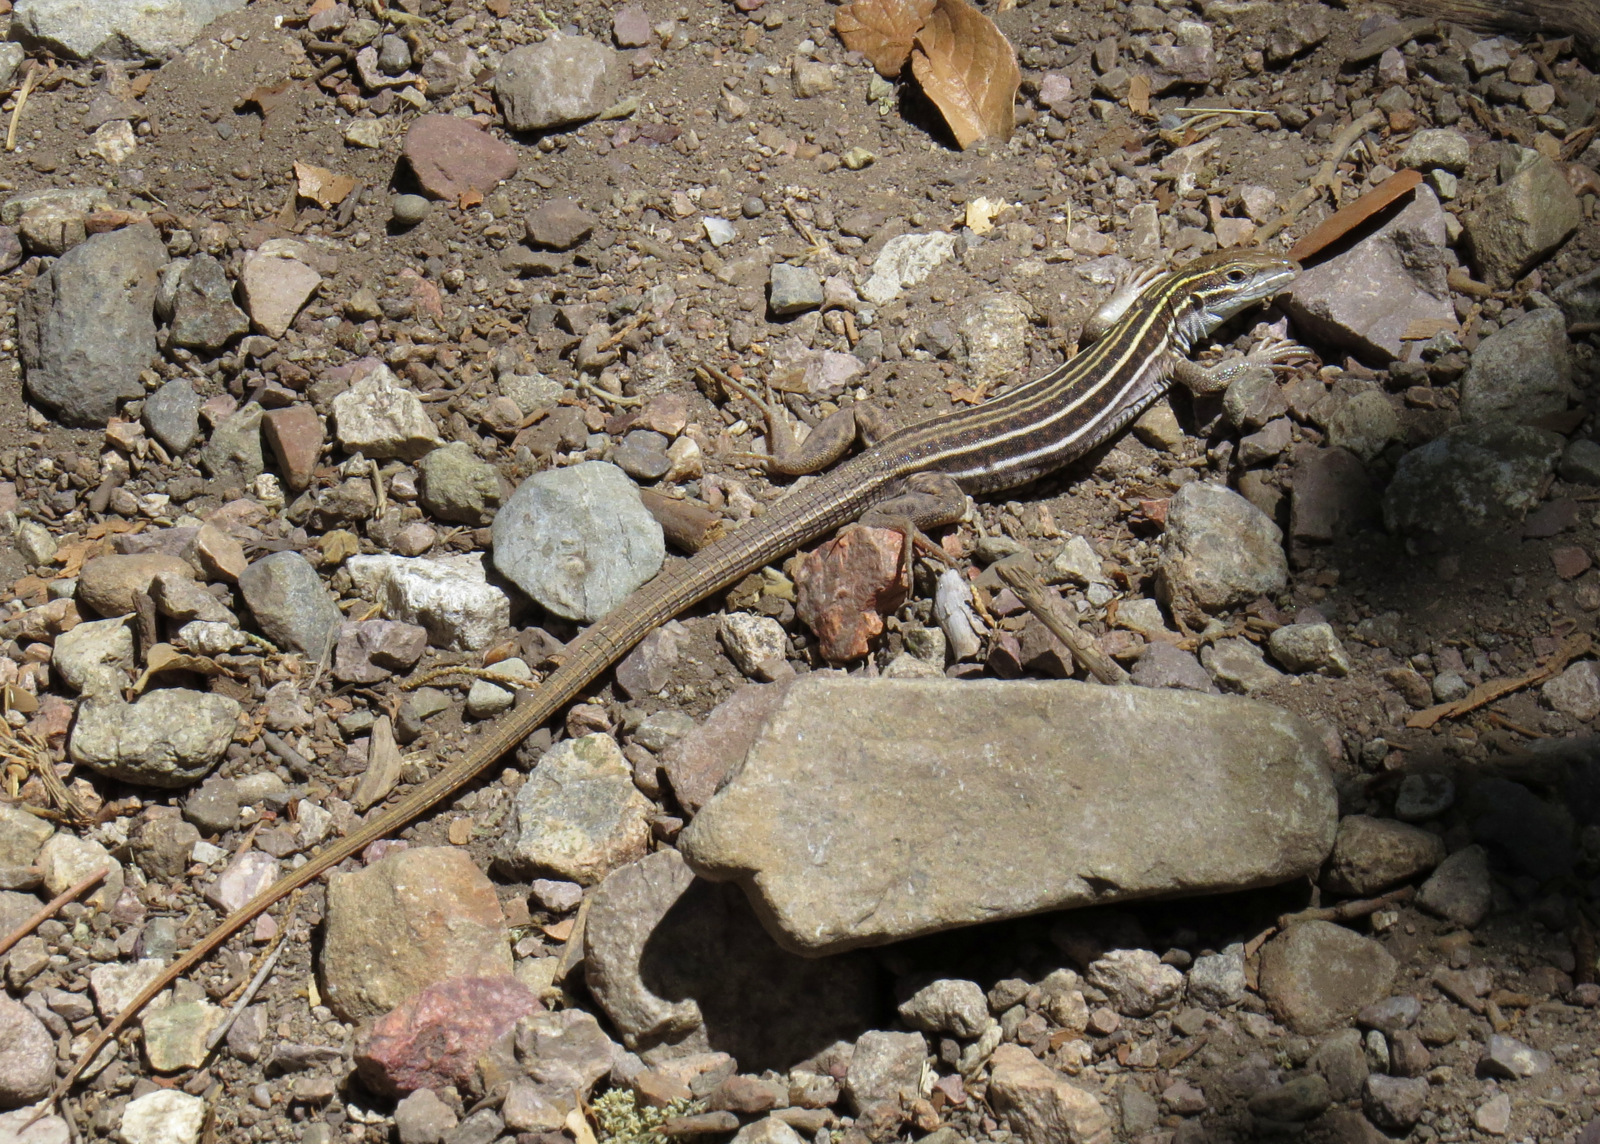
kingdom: Animalia
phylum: Chordata
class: Squamata
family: Teiidae
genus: Aspidoscelis
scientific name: Aspidoscelis sonorae
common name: Sonoran spotted whiptail
